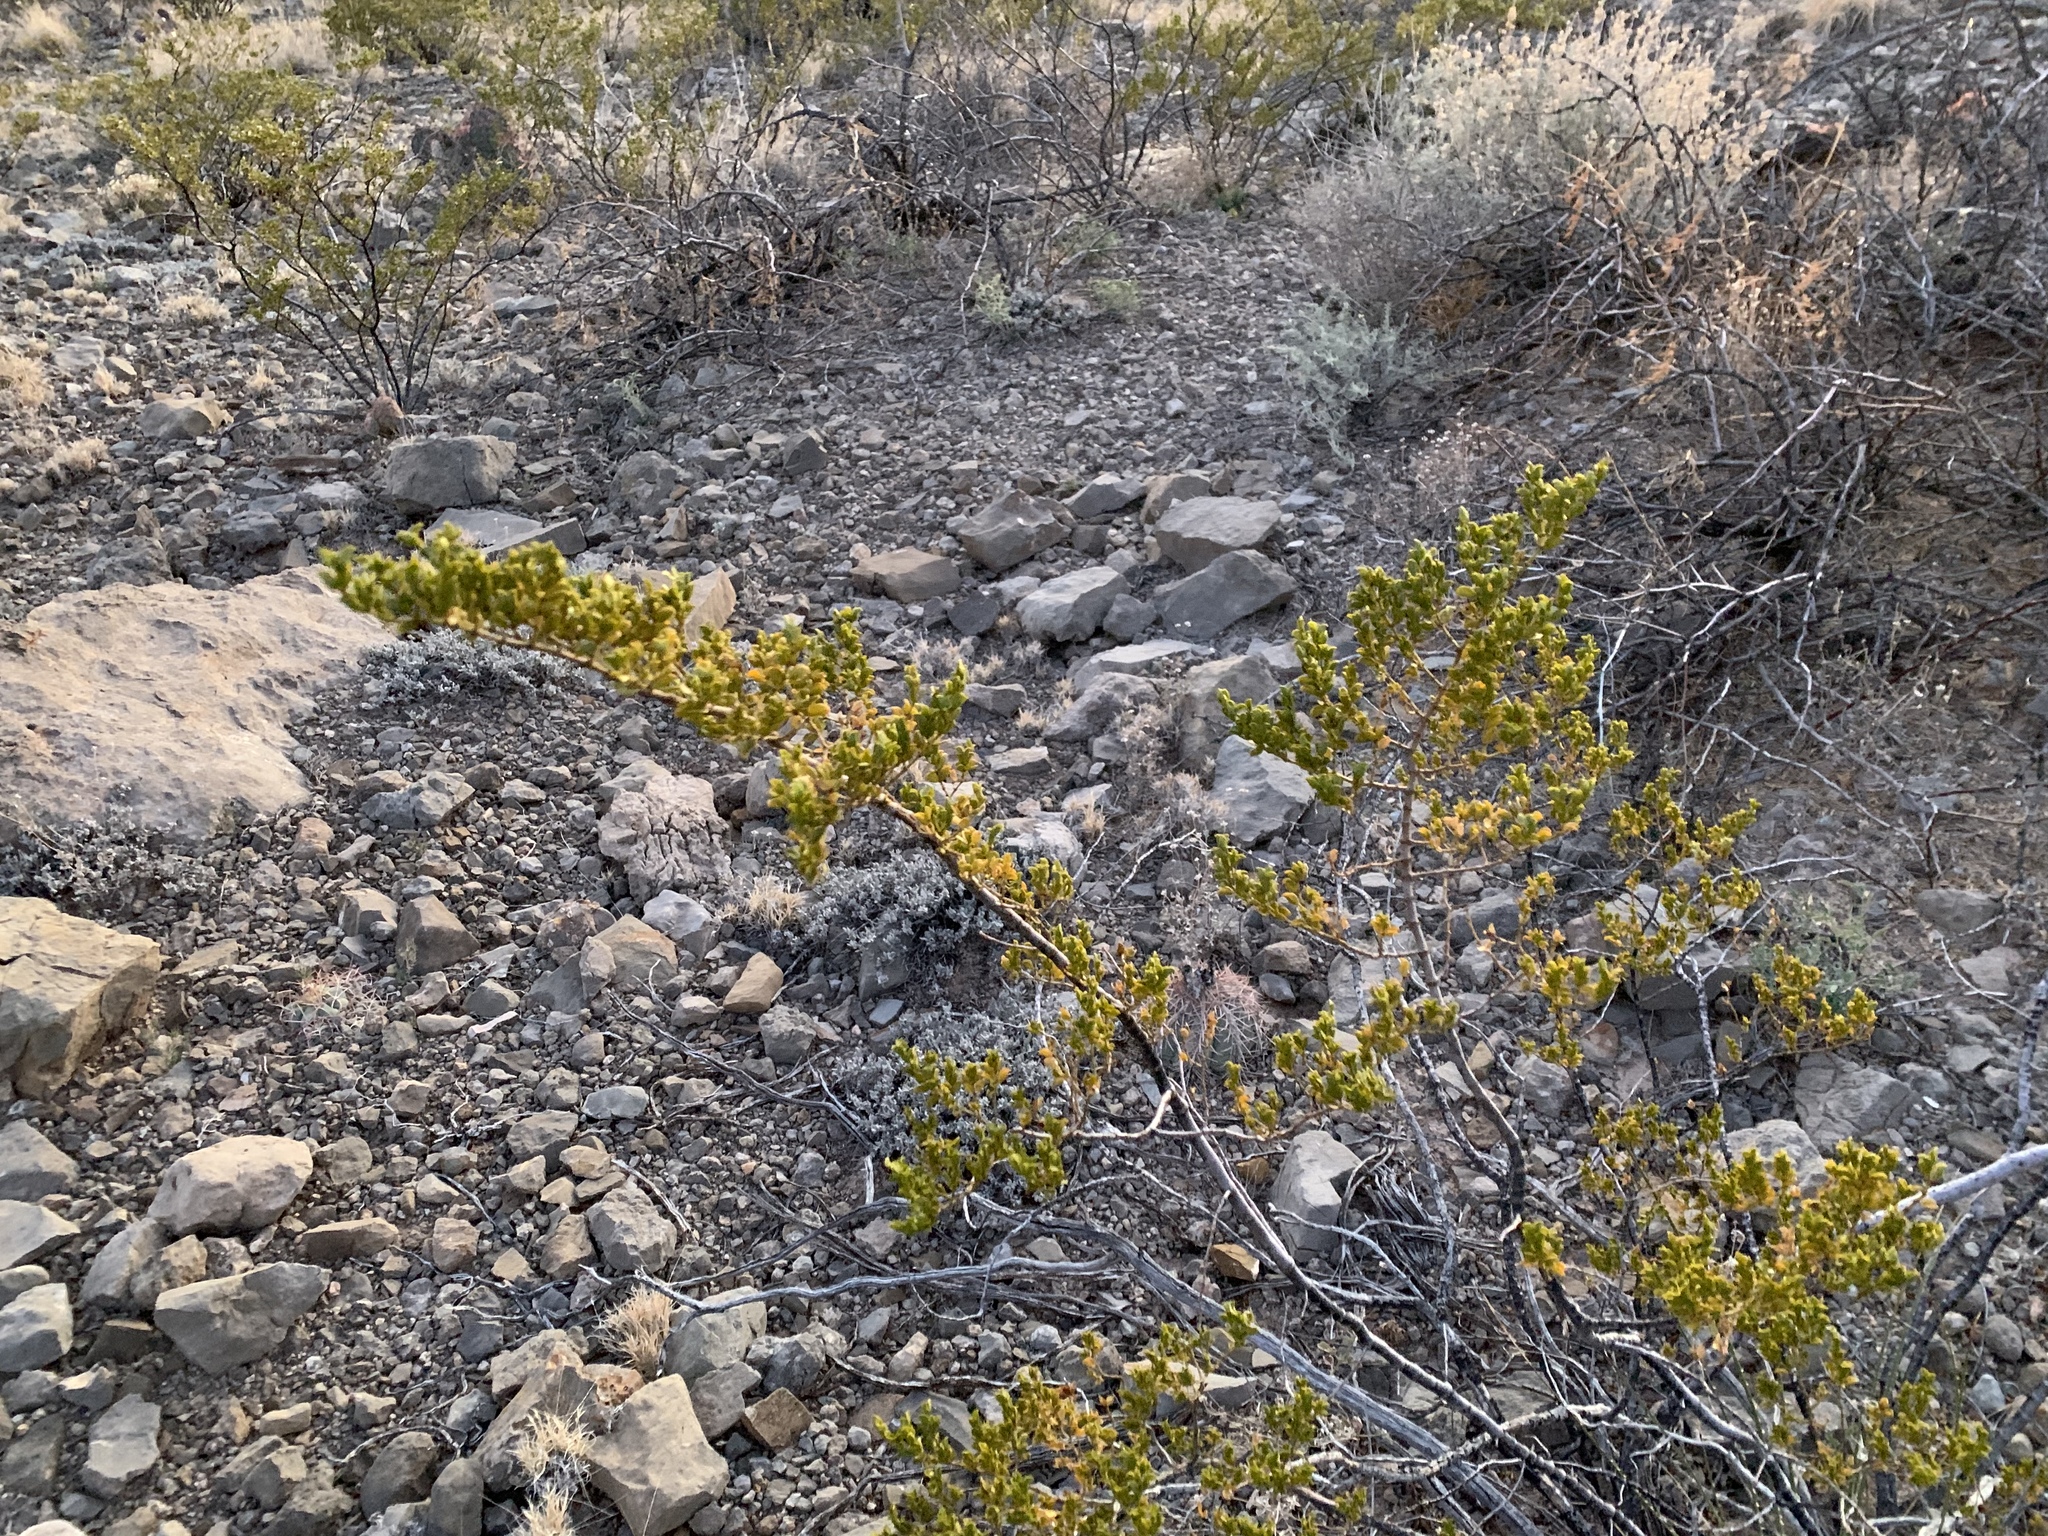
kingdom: Plantae
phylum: Tracheophyta
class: Magnoliopsida
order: Zygophyllales
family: Zygophyllaceae
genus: Larrea
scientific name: Larrea tridentata
